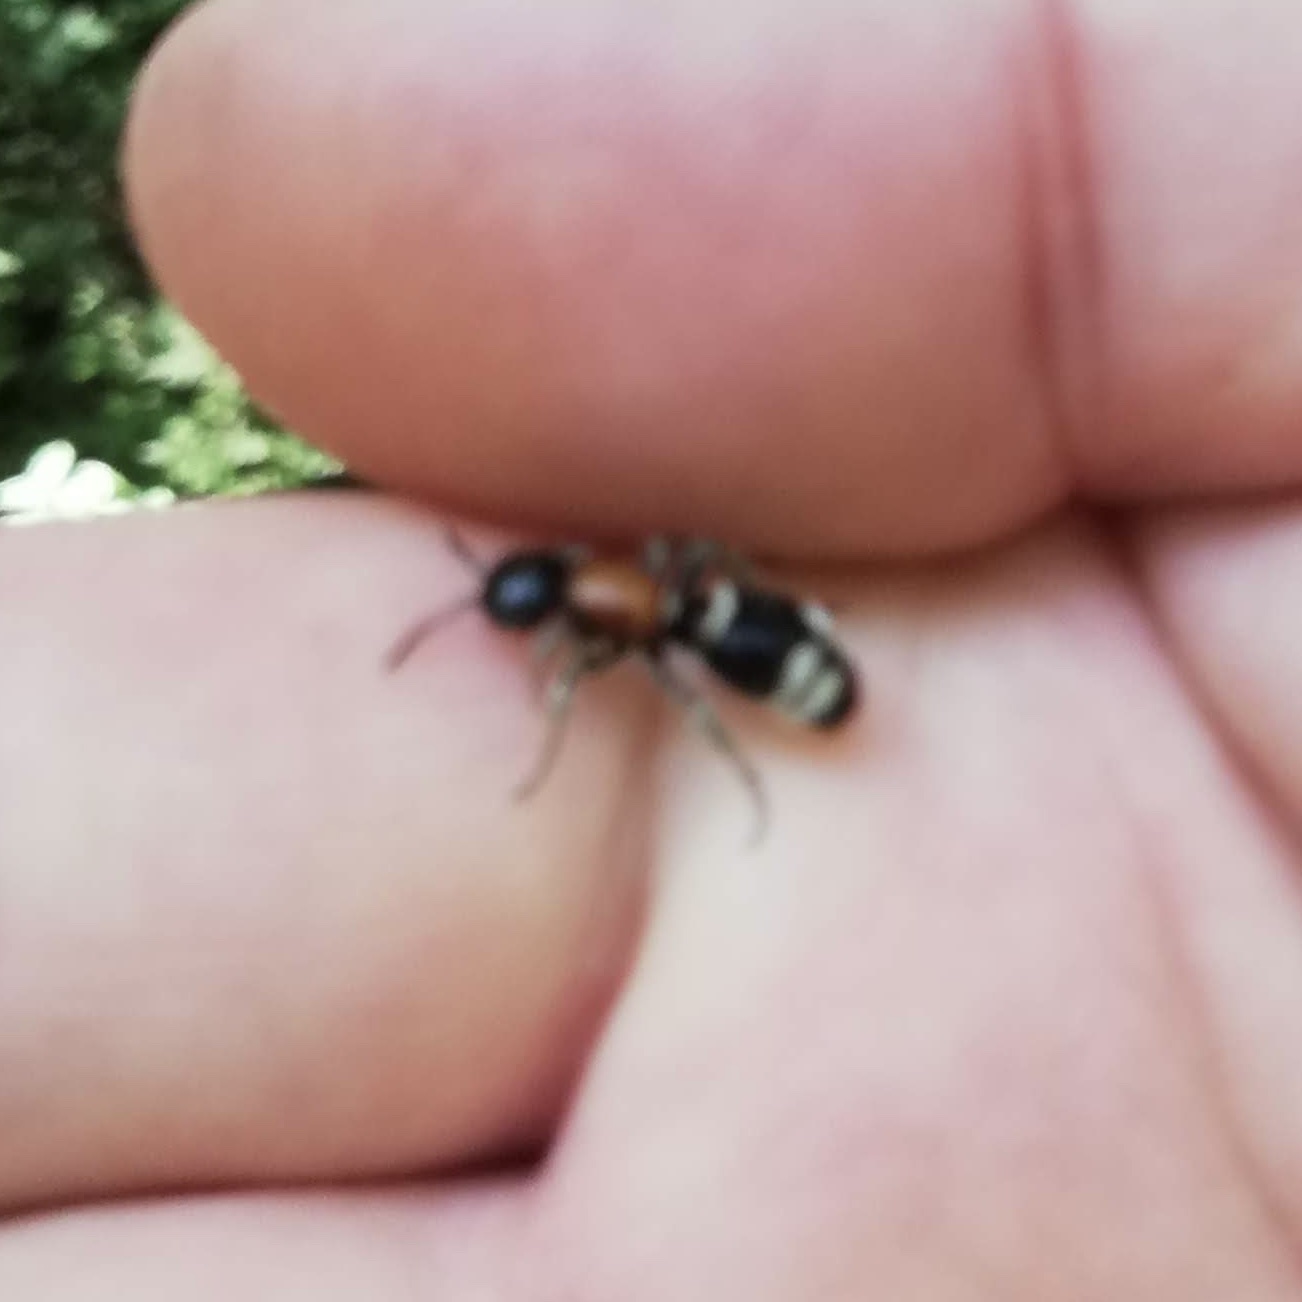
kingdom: Animalia
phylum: Arthropoda
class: Insecta
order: Hymenoptera
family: Mutillidae
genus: Mutilla
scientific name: Mutilla marginata
